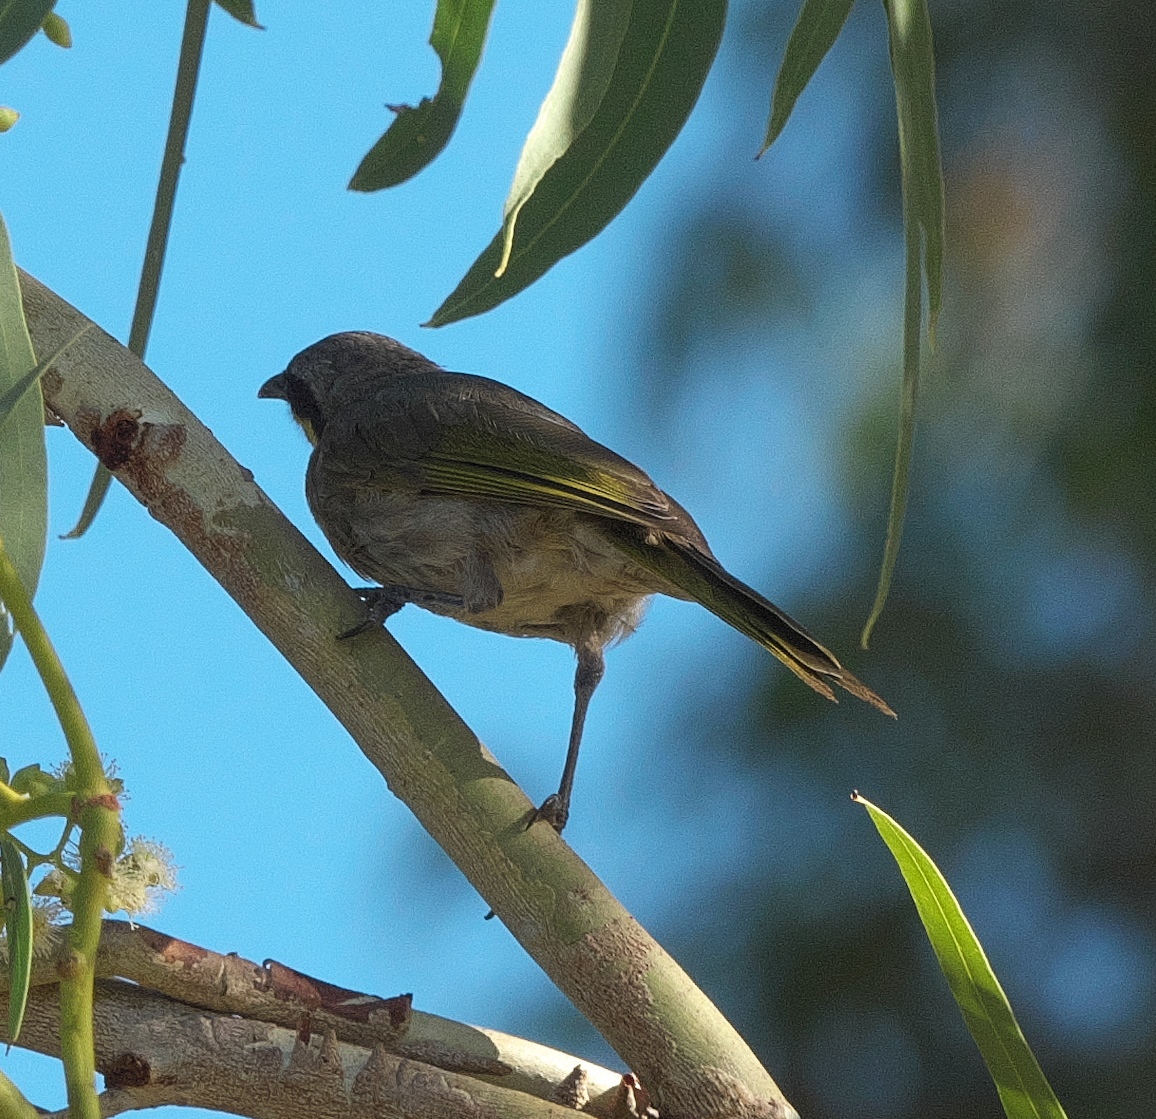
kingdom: Animalia
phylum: Chordata
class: Aves
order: Passeriformes
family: Meliphagidae
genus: Gavicalis
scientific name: Gavicalis virescens
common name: Singing honeyeater
